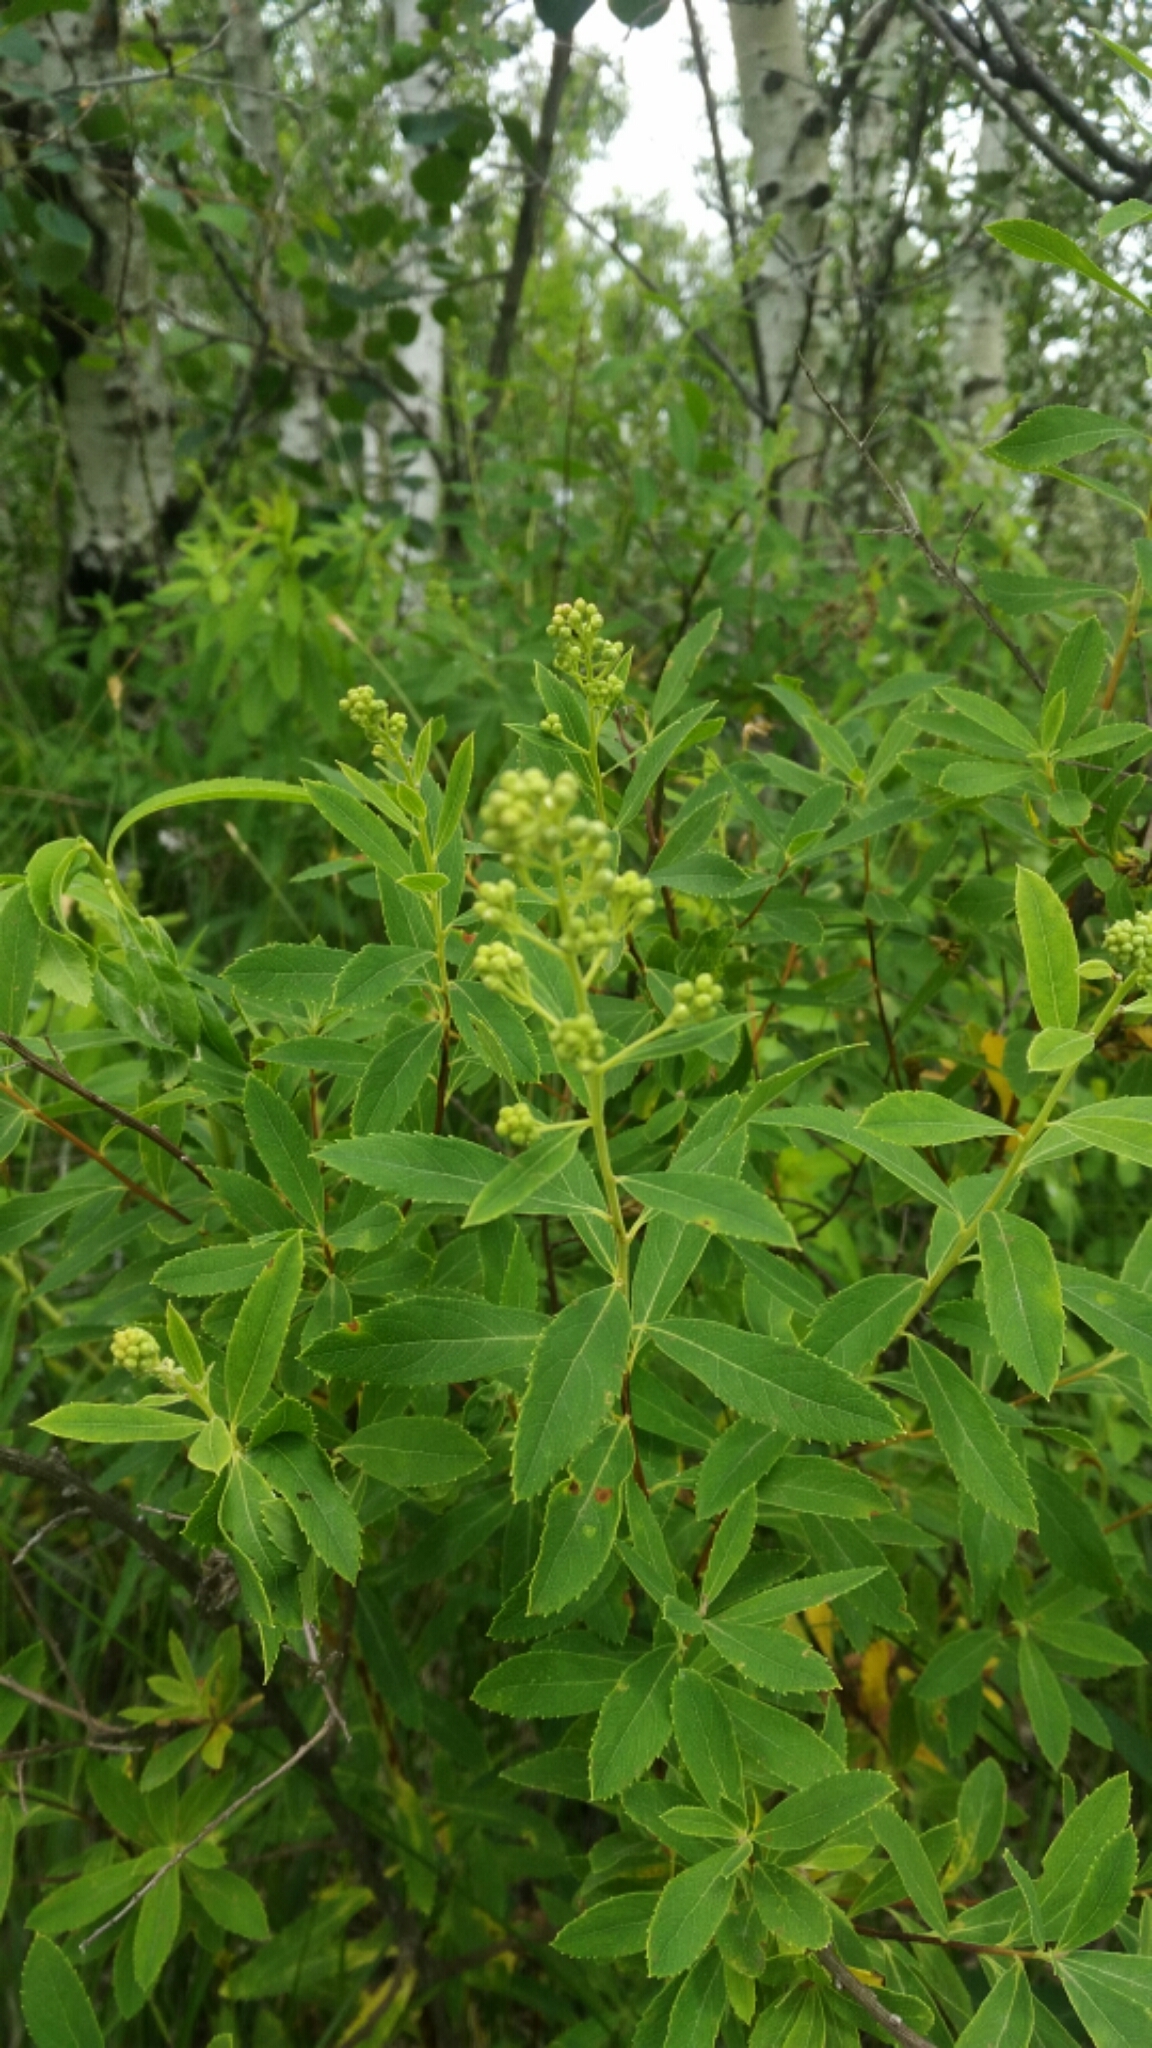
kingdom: Plantae
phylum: Tracheophyta
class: Magnoliopsida
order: Rosales
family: Rosaceae
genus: Spiraea
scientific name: Spiraea alba
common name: Pale bridewort
